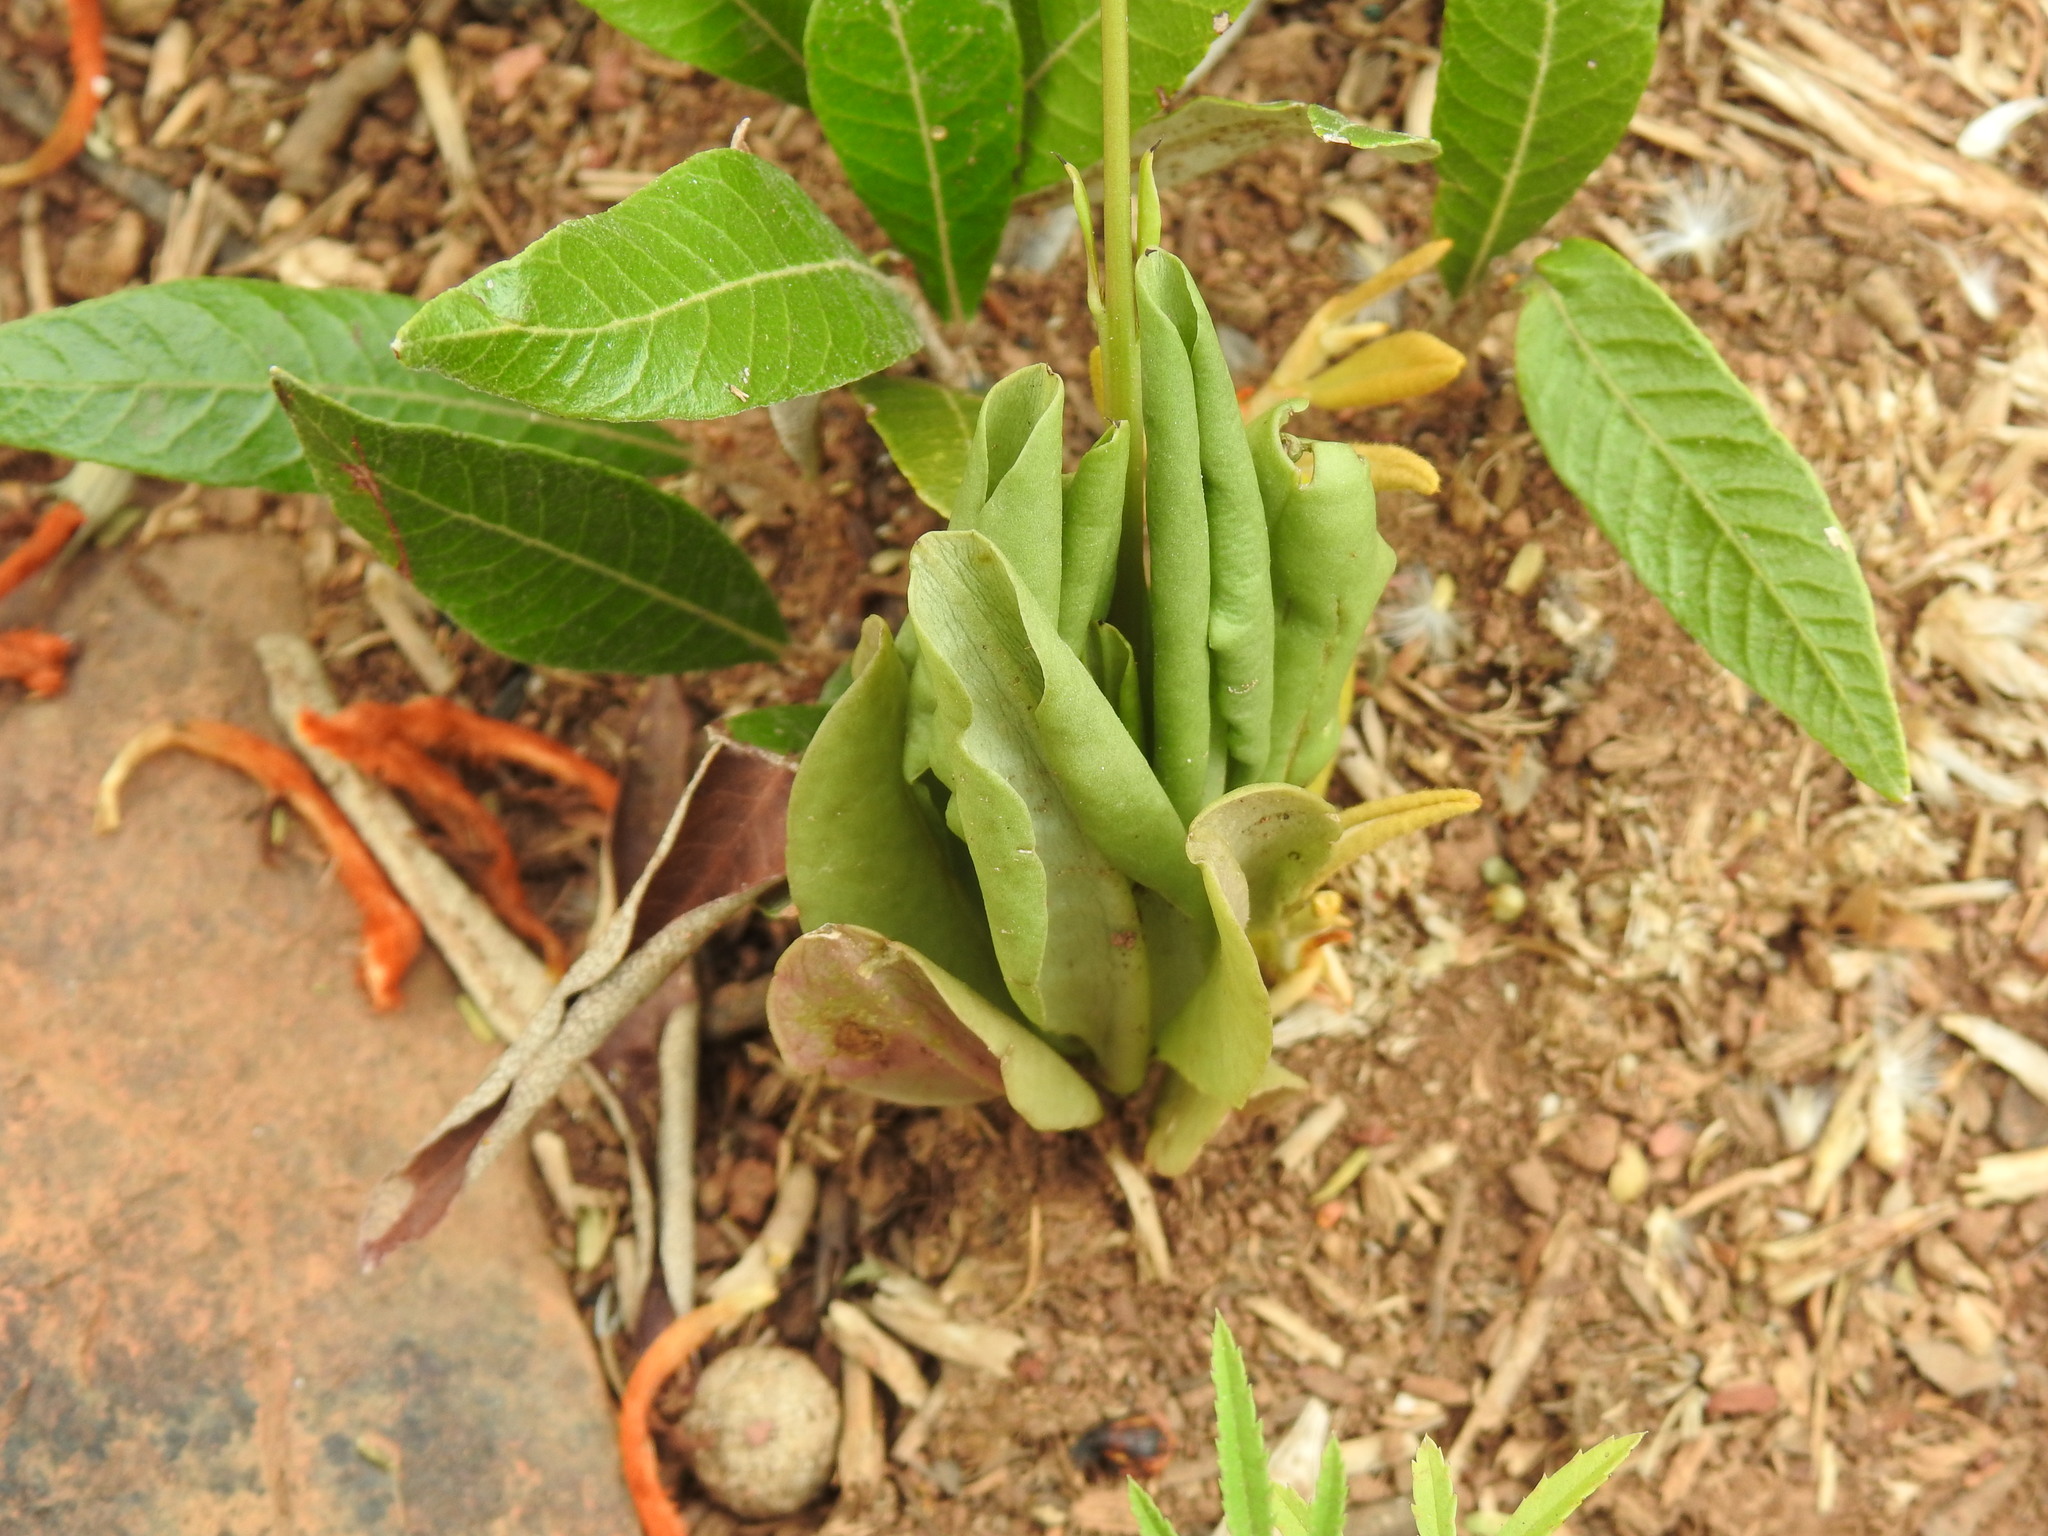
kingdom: Plantae
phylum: Tracheophyta
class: Magnoliopsida
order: Caryophyllales
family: Talinaceae
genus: Talinum
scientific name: Talinum paniculatum
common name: Jewels of opar
